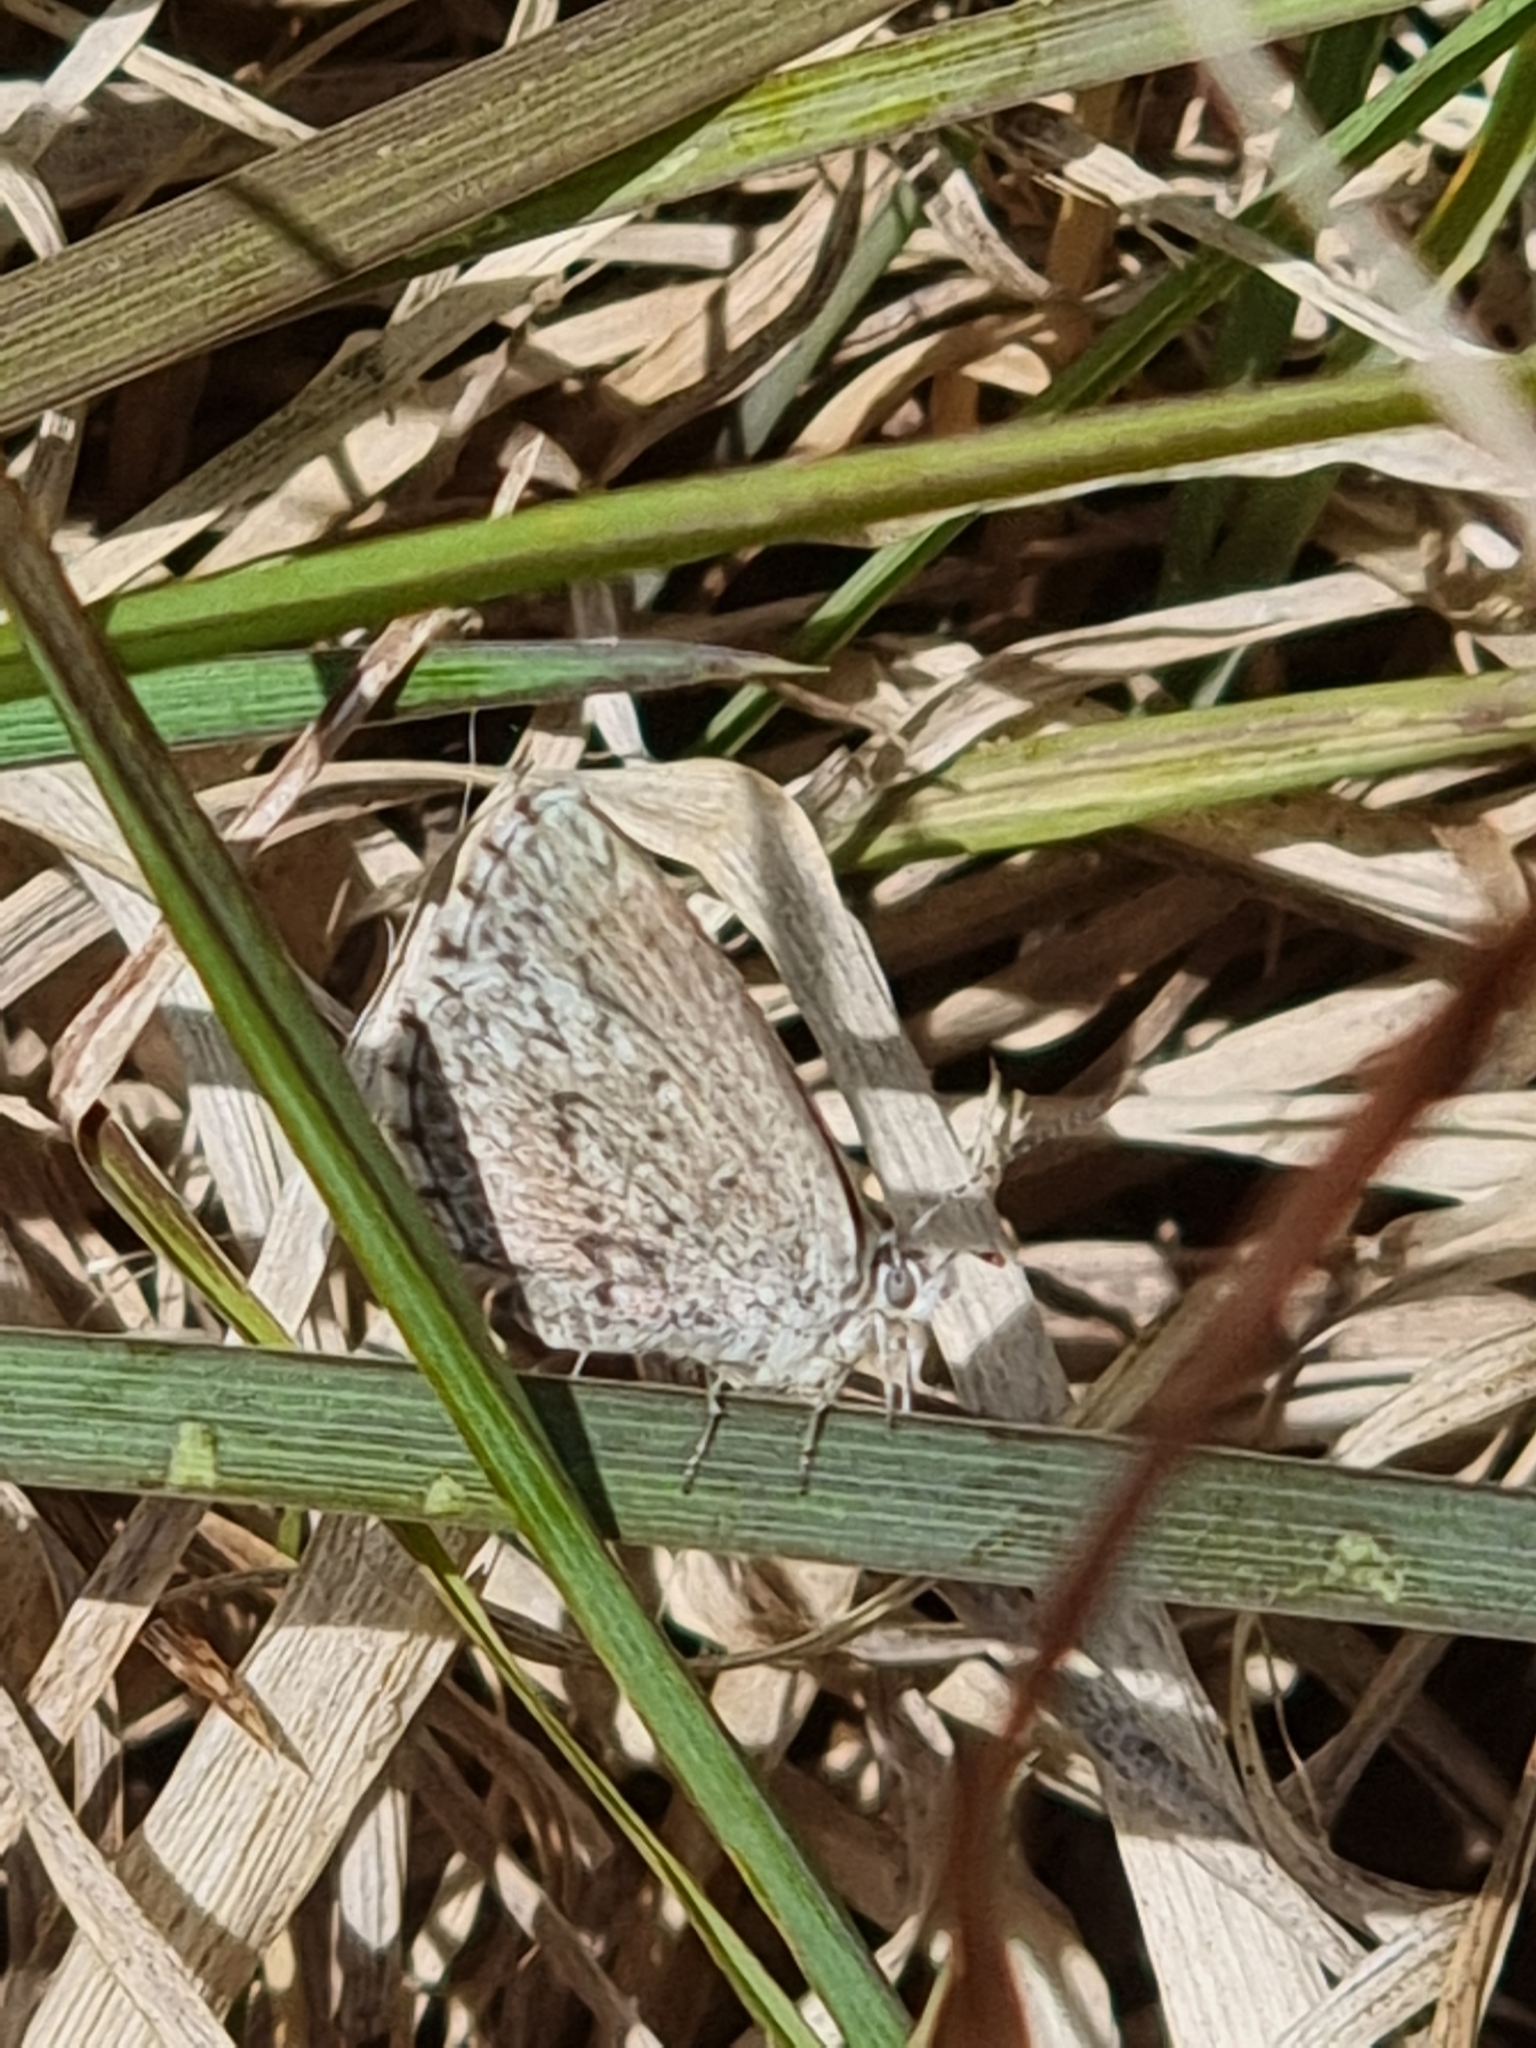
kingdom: Animalia
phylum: Arthropoda
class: Insecta
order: Lepidoptera
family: Lycaenidae
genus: Zizina
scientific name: Zizina oxleyi
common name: Southern blue
